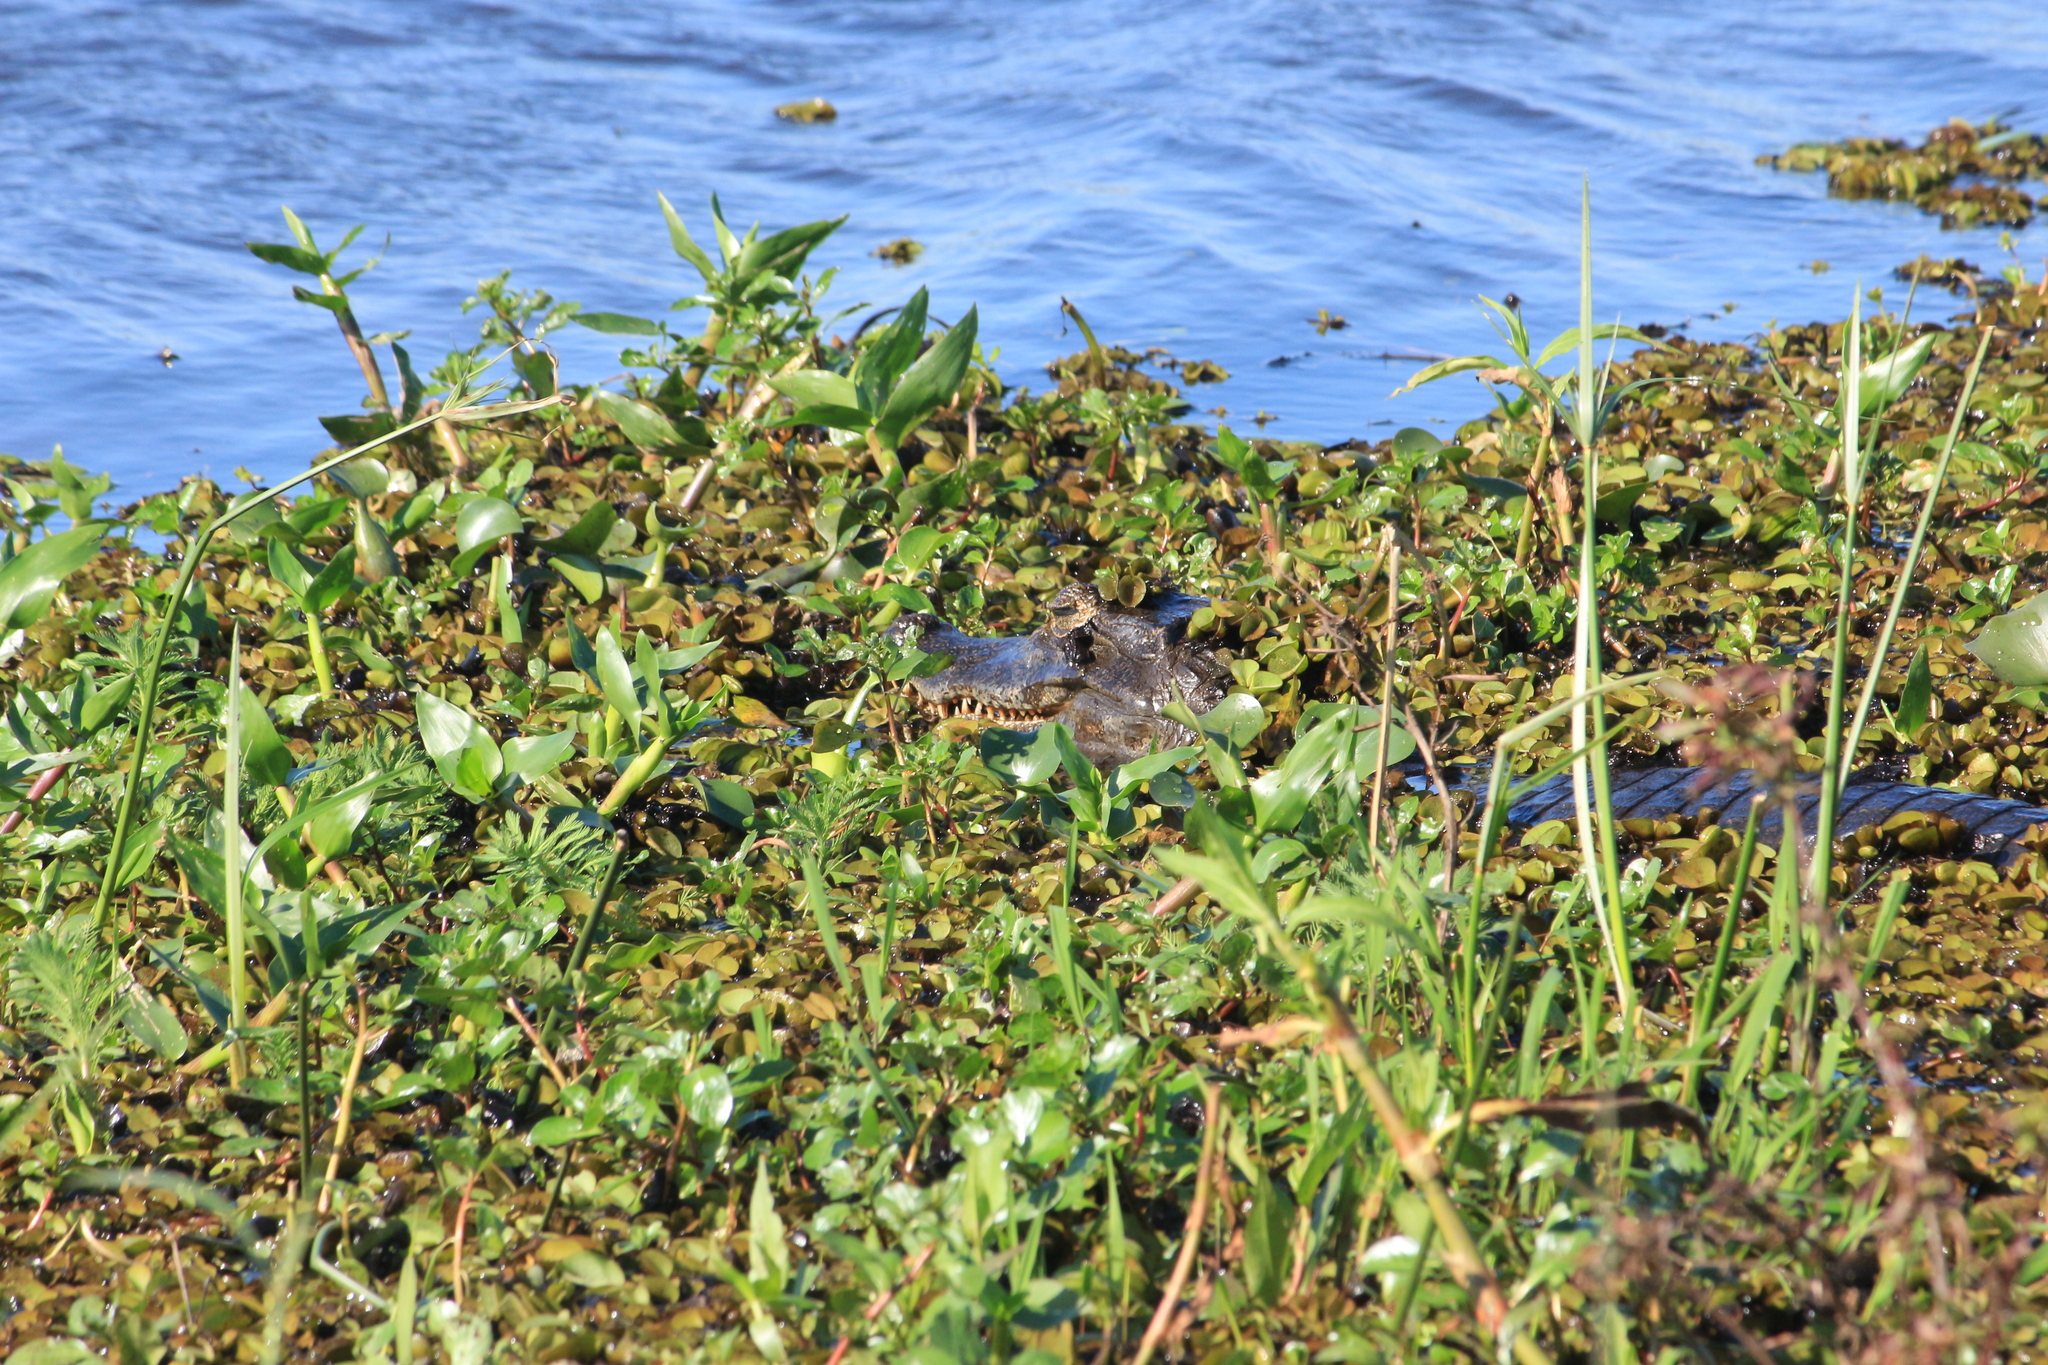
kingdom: Animalia
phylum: Chordata
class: Crocodylia
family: Alligatoridae
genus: Caiman
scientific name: Caiman yacare
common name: Yacare caiman
